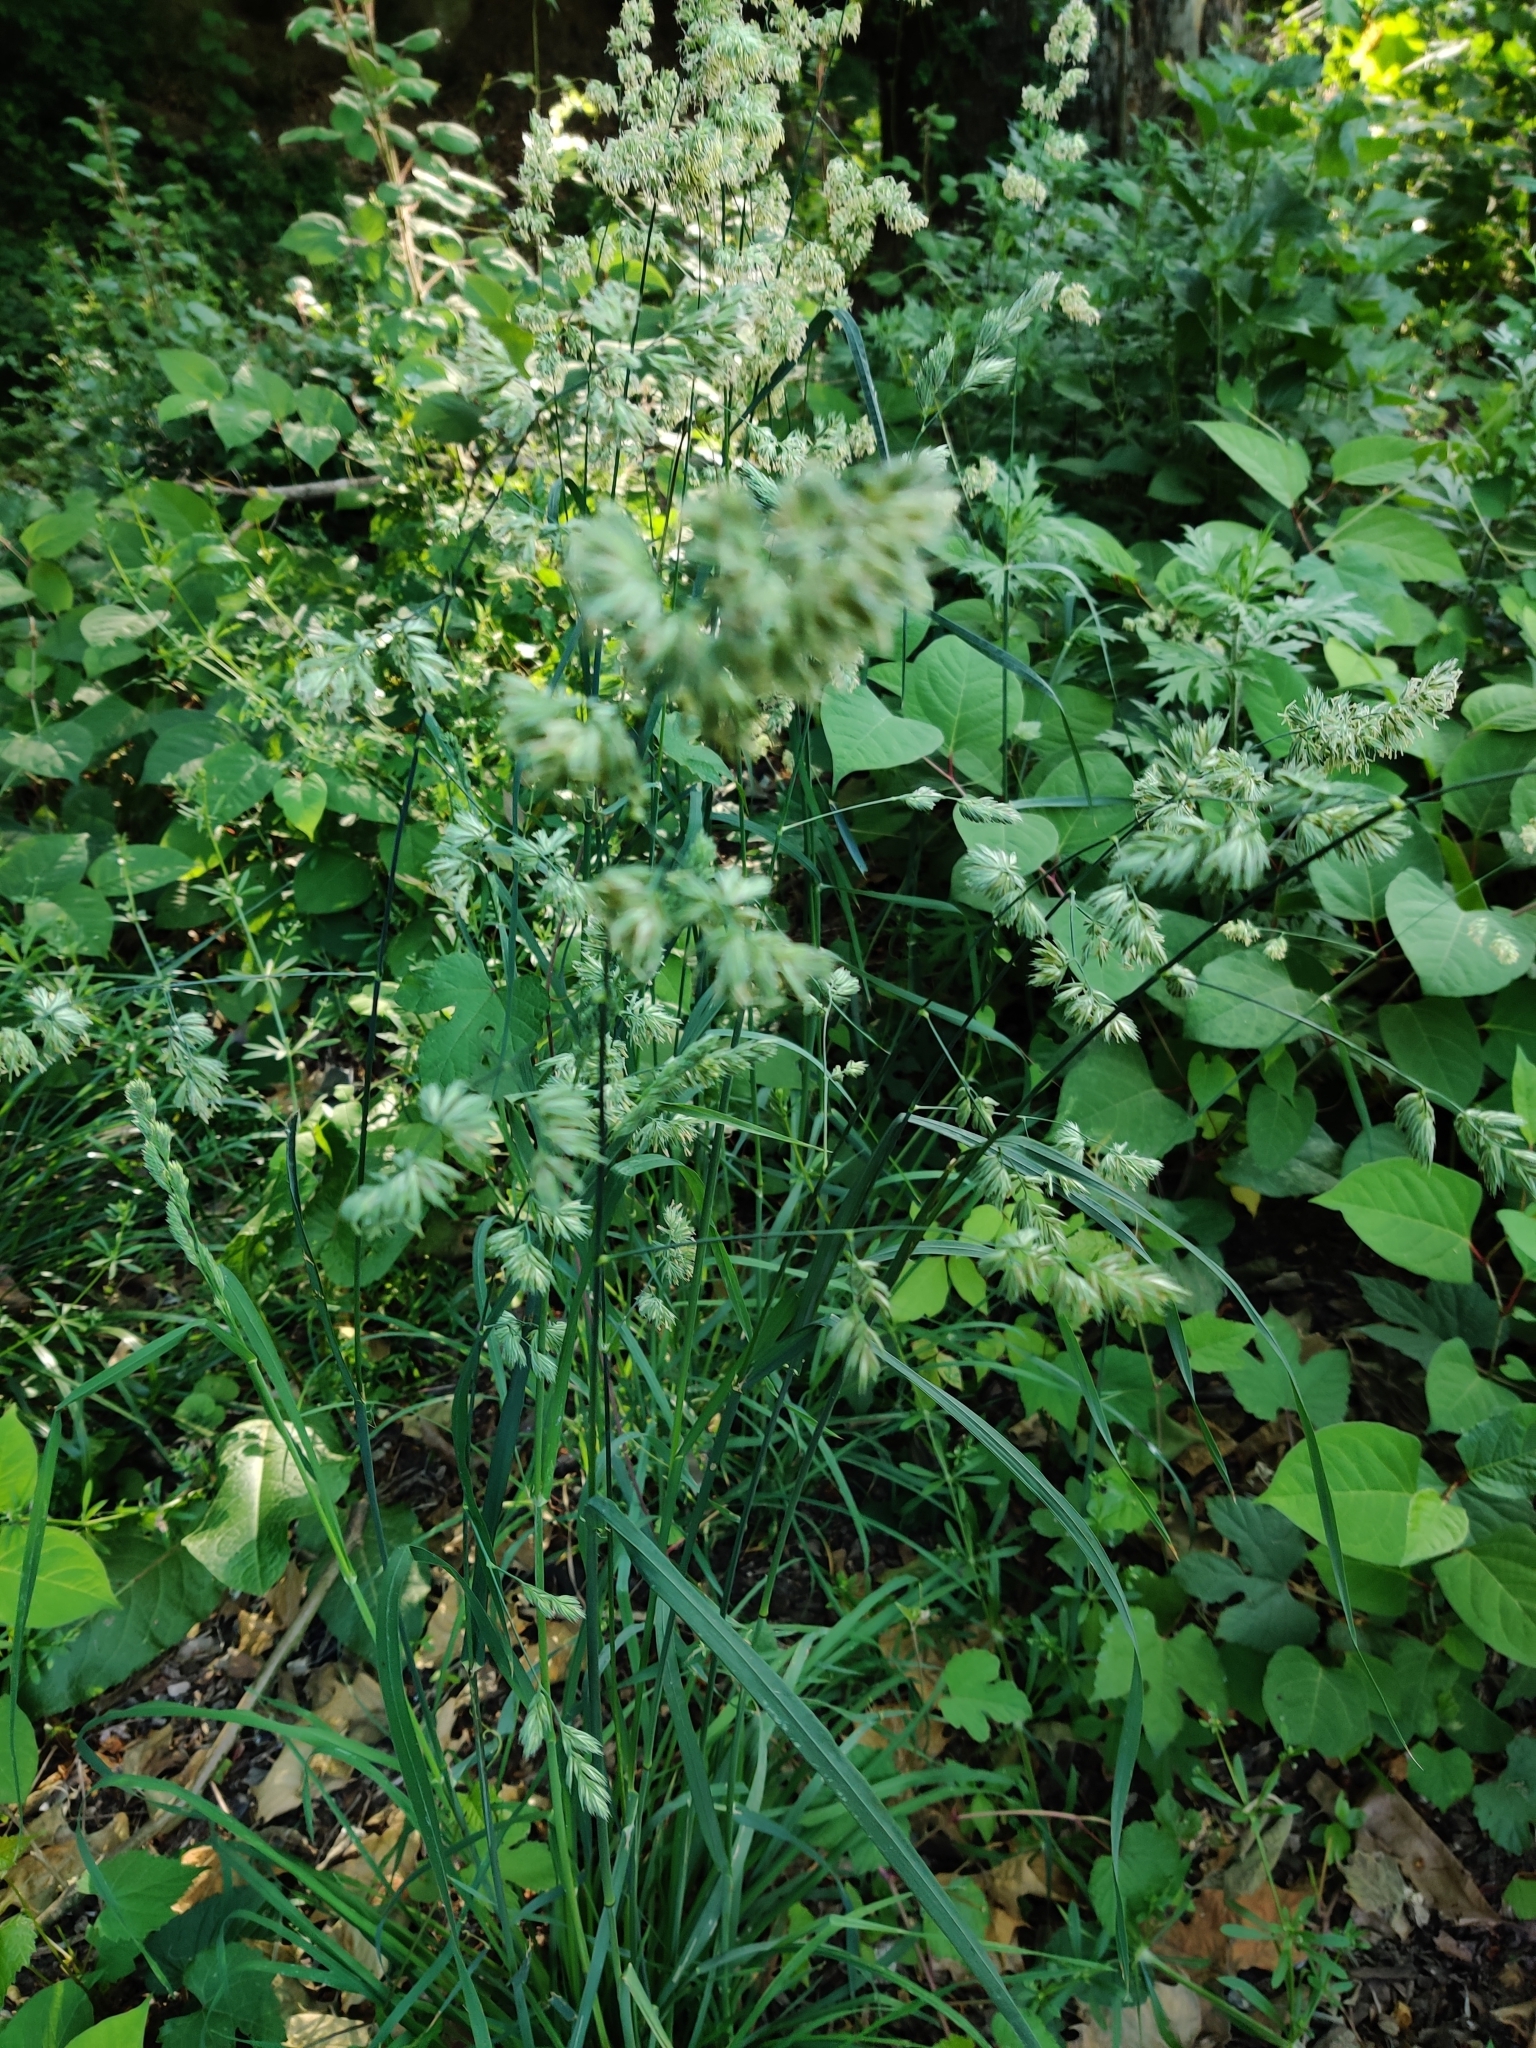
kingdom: Plantae
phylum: Tracheophyta
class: Liliopsida
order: Poales
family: Poaceae
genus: Dactylis
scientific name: Dactylis glomerata
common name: Orchardgrass
